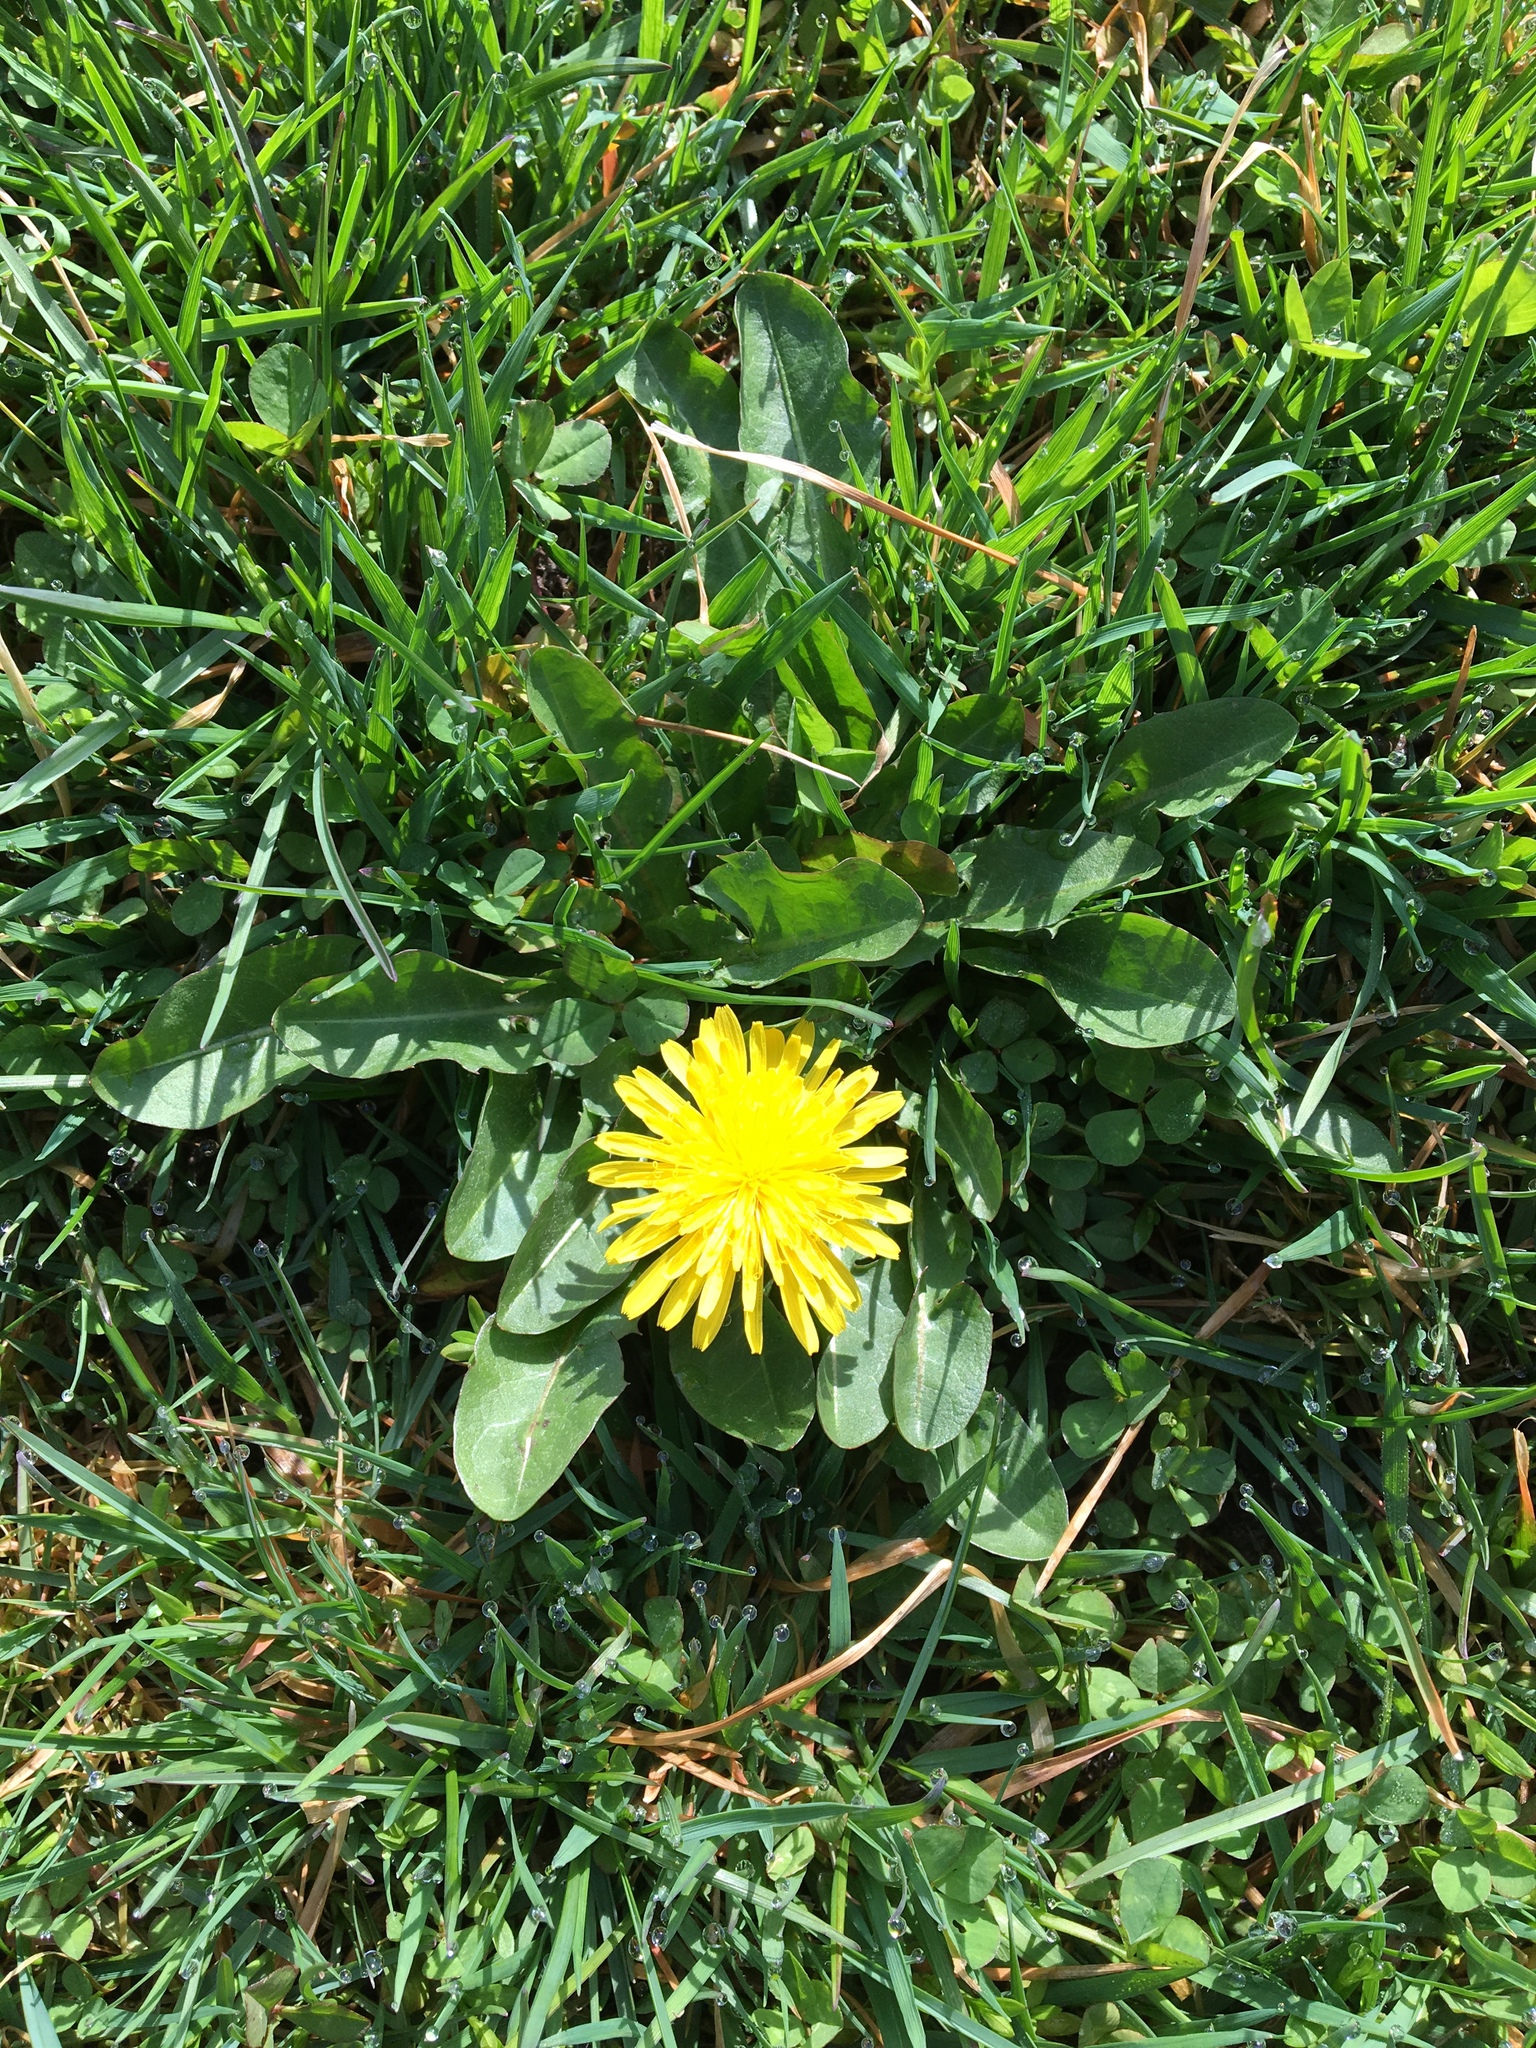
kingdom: Plantae
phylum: Tracheophyta
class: Magnoliopsida
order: Asterales
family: Asteraceae
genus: Taraxacum
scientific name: Taraxacum officinale
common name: Common dandelion
